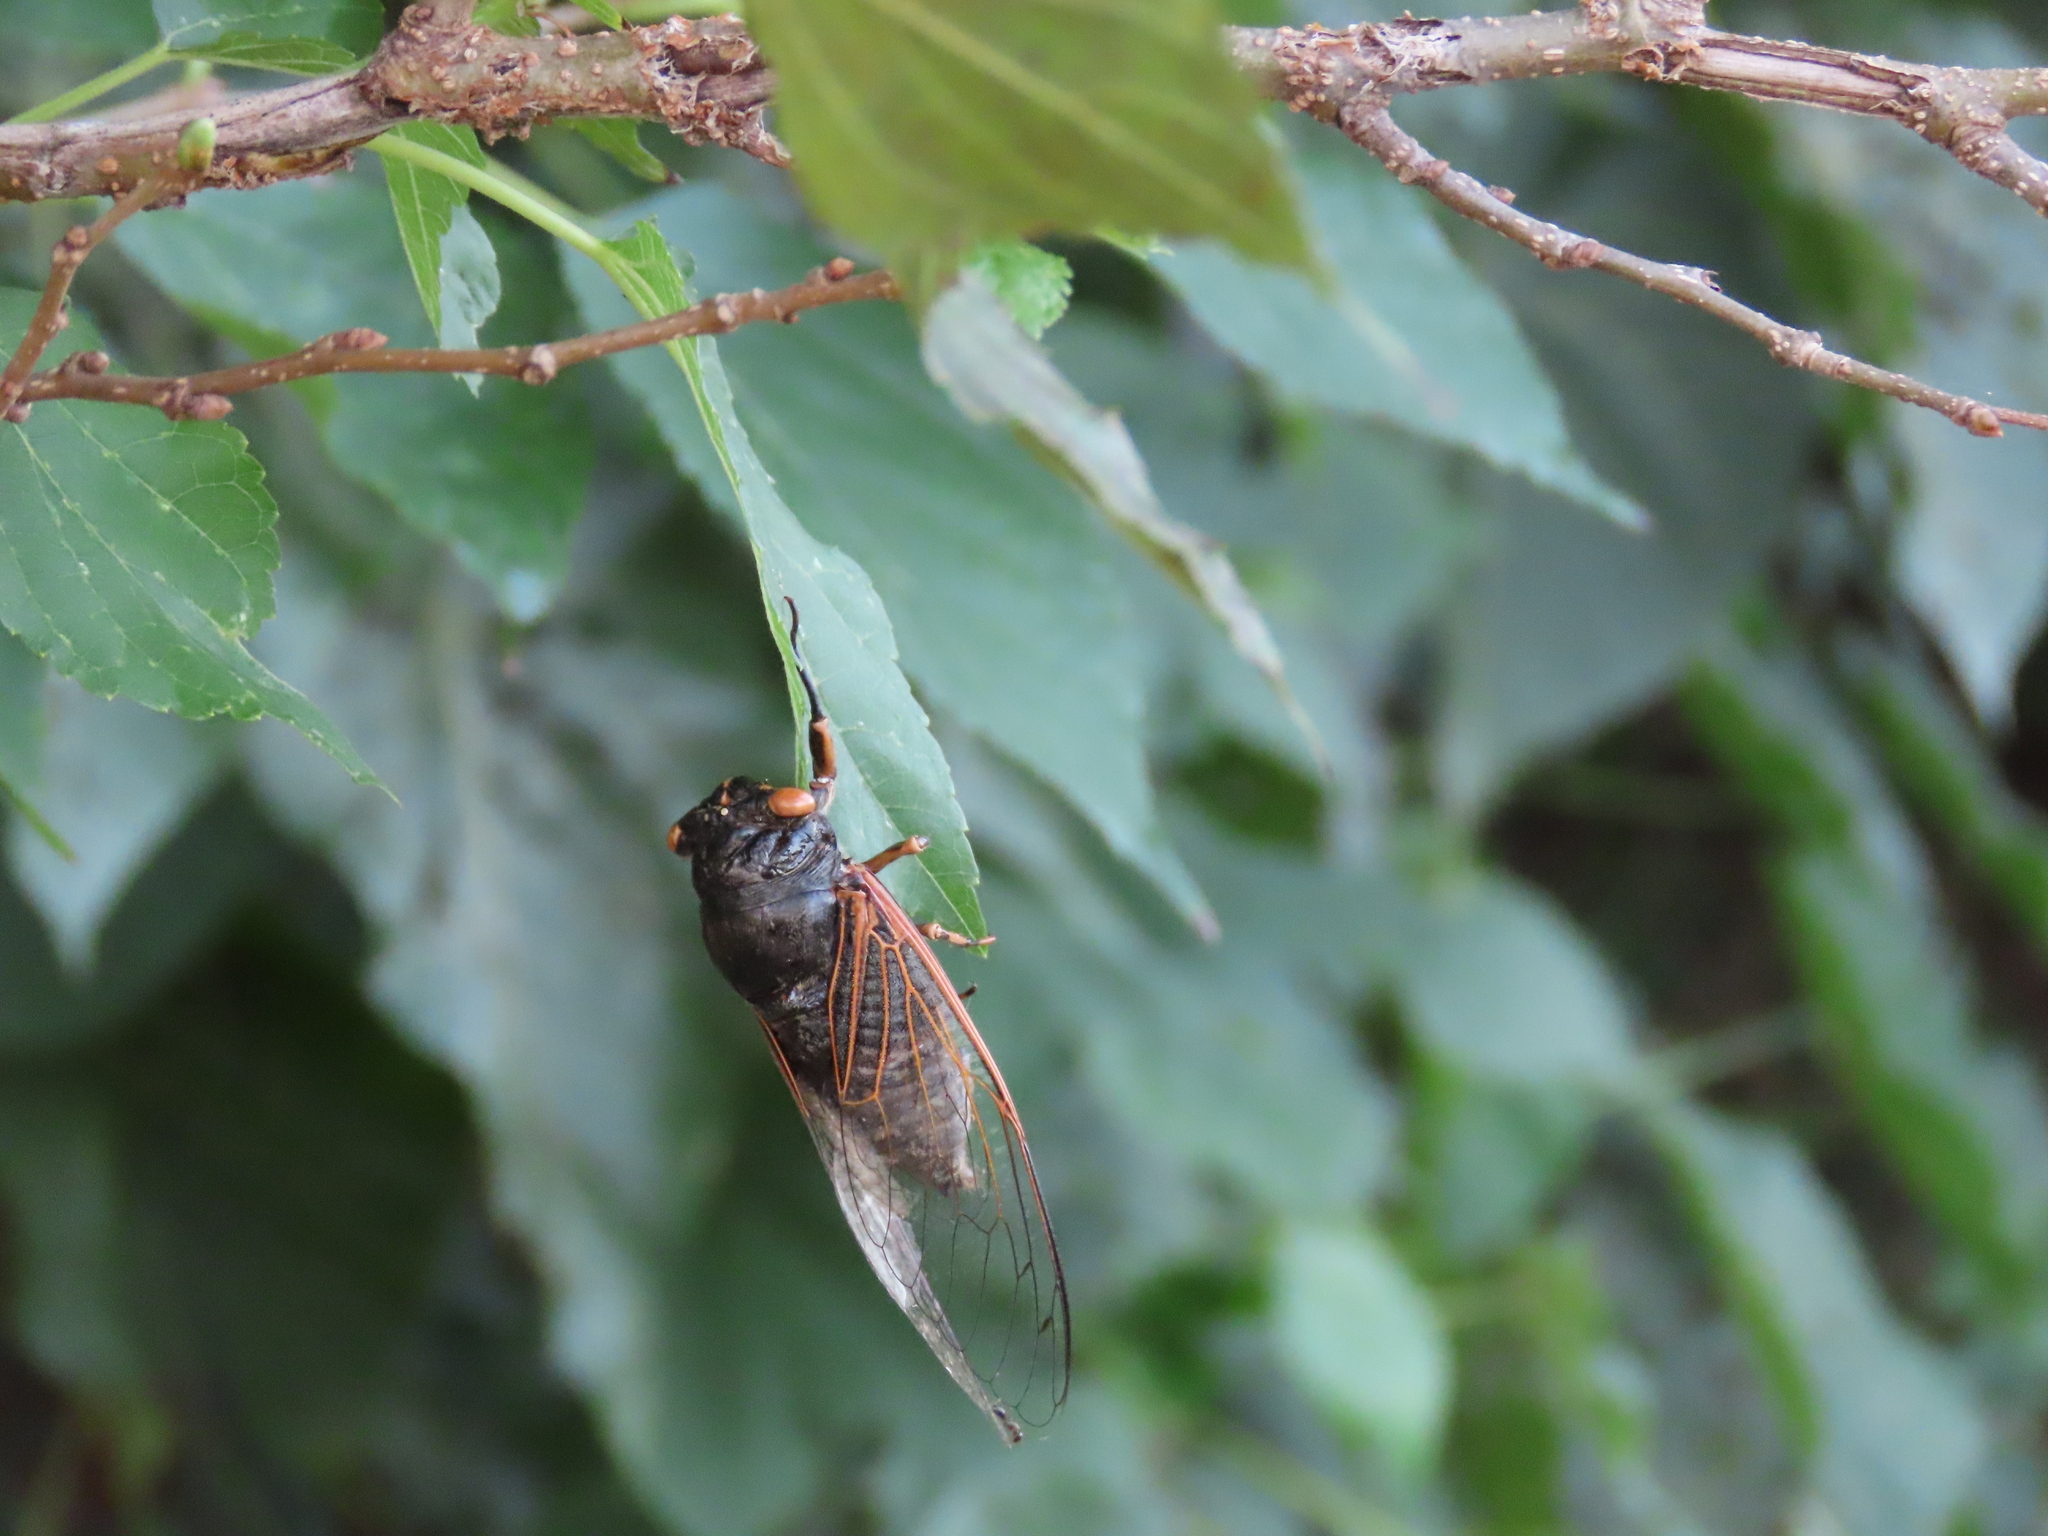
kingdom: Animalia
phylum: Arthropoda
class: Insecta
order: Hemiptera
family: Cicadidae
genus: Cryptotympana
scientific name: Cryptotympana atrata
